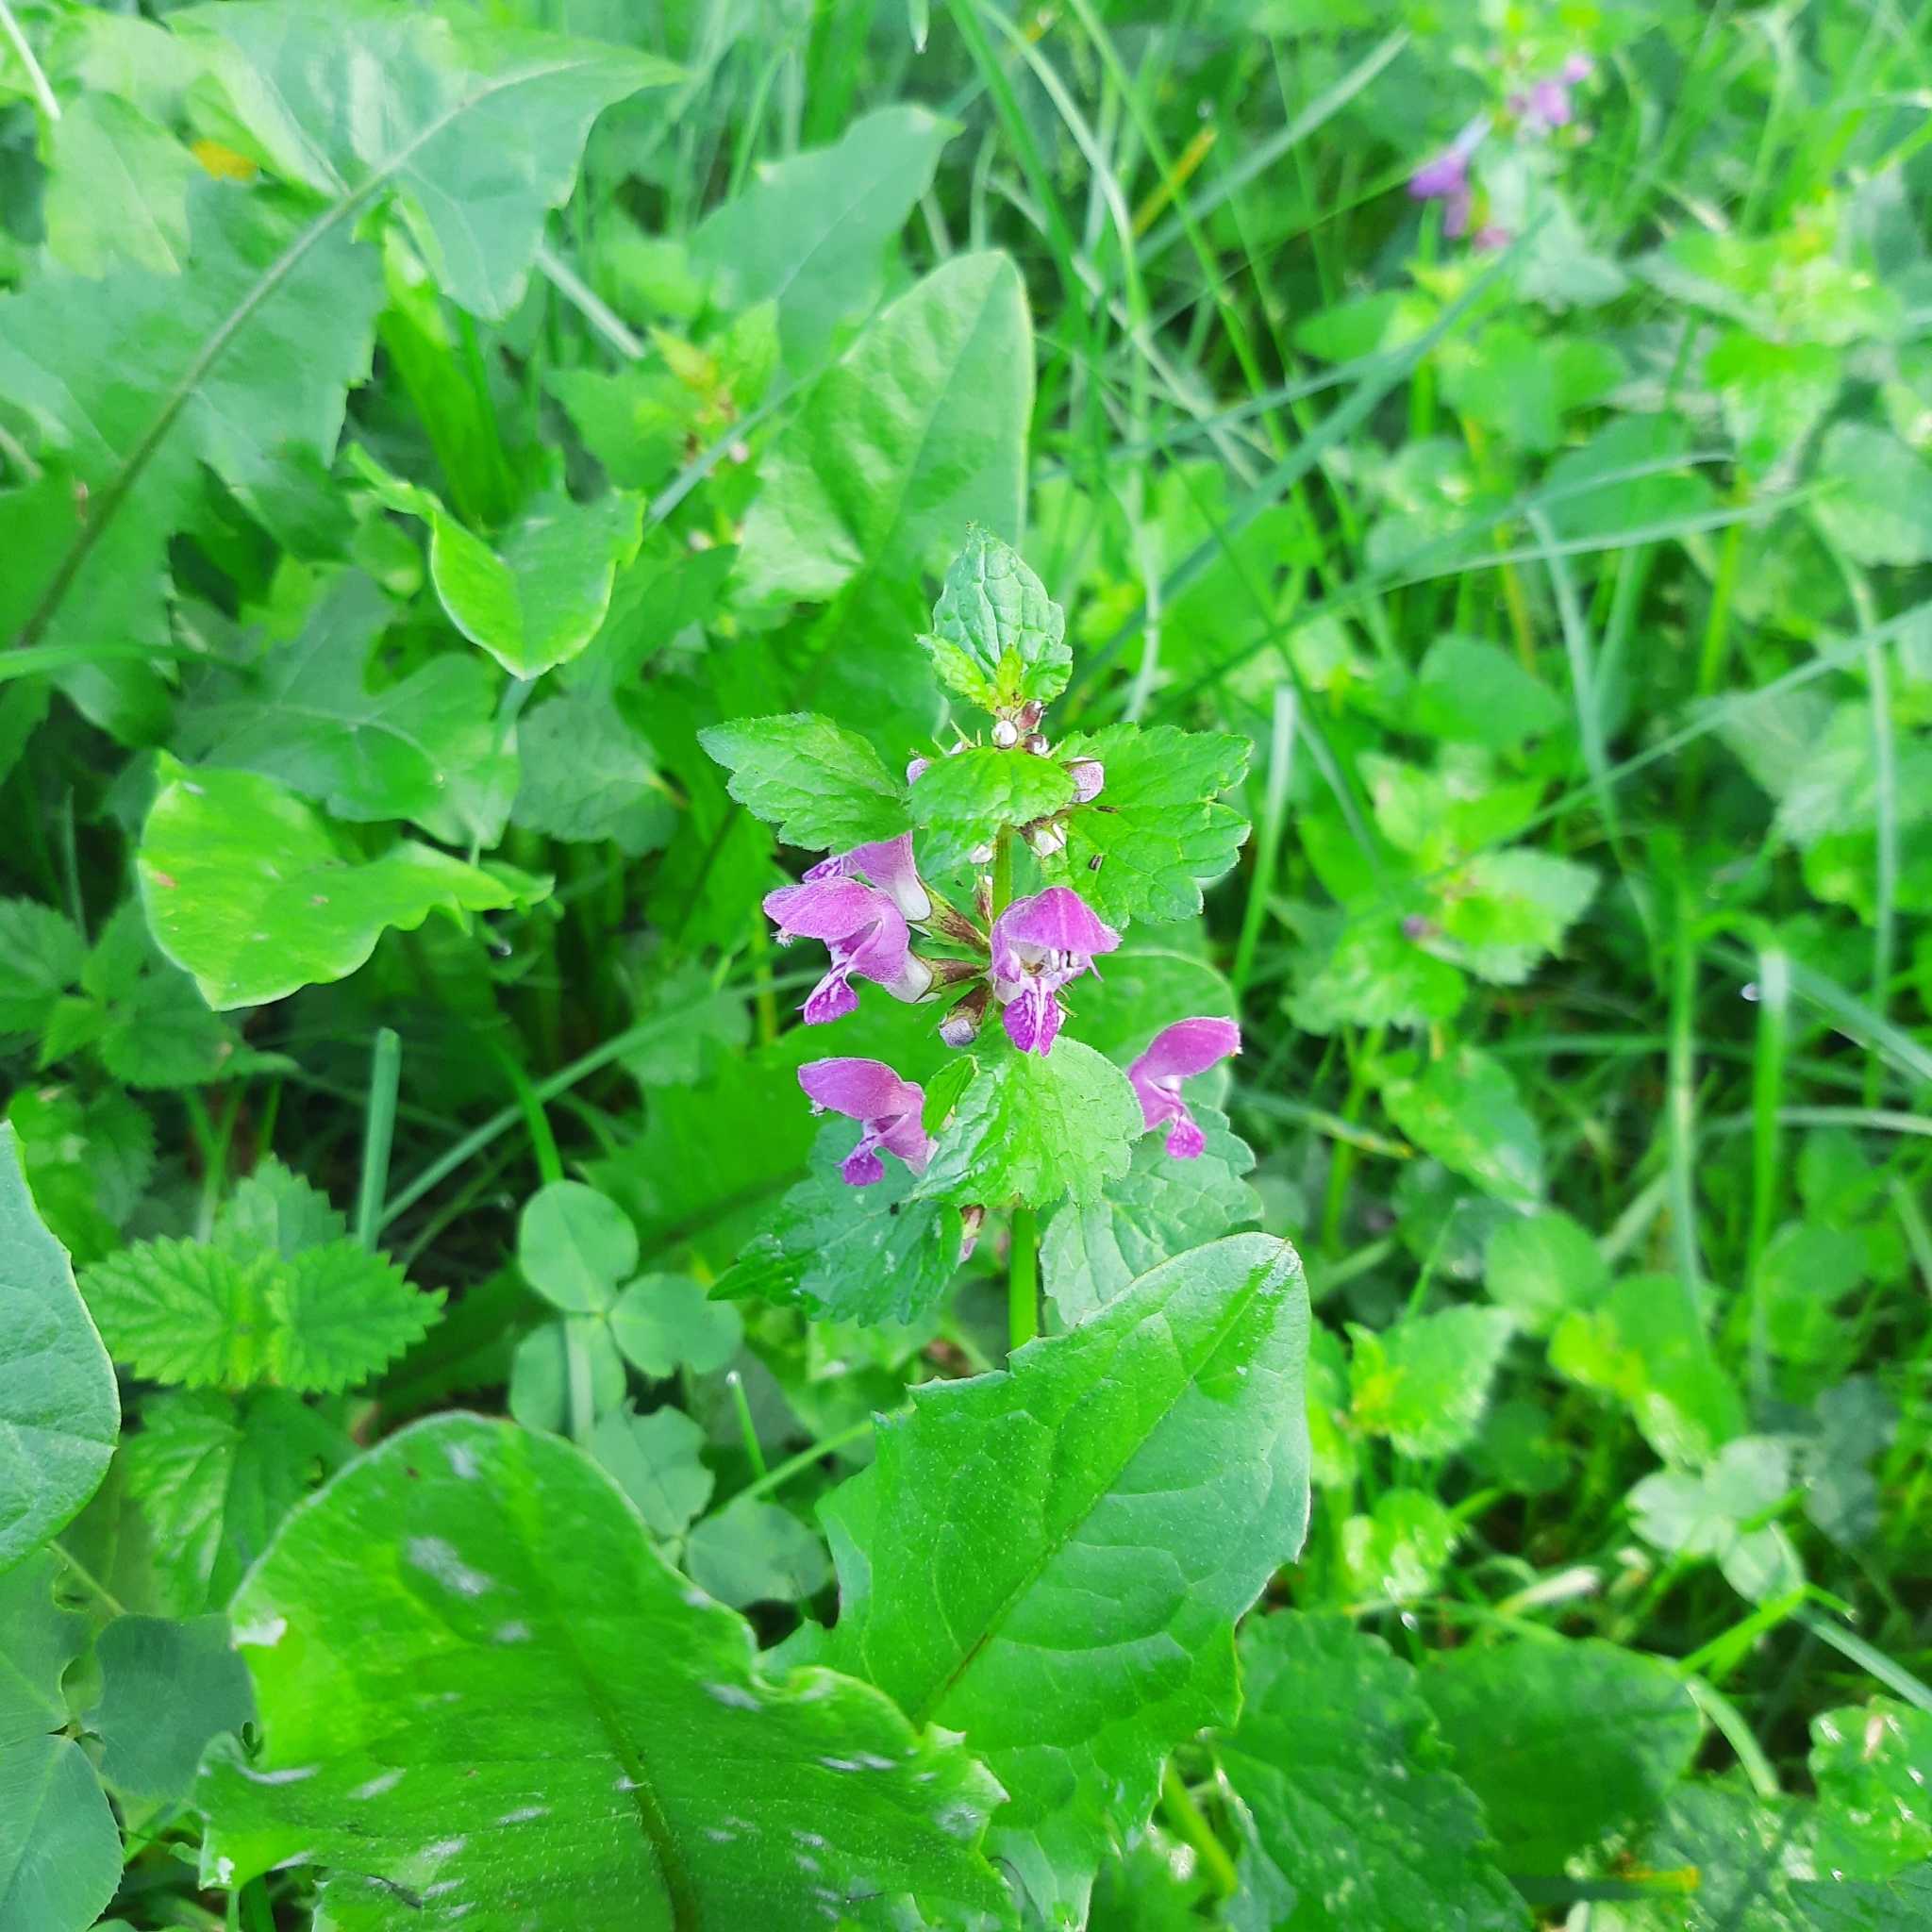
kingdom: Plantae
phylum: Tracheophyta
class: Magnoliopsida
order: Lamiales
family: Lamiaceae
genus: Lamium
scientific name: Lamium maculatum
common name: Spotted dead-nettle
